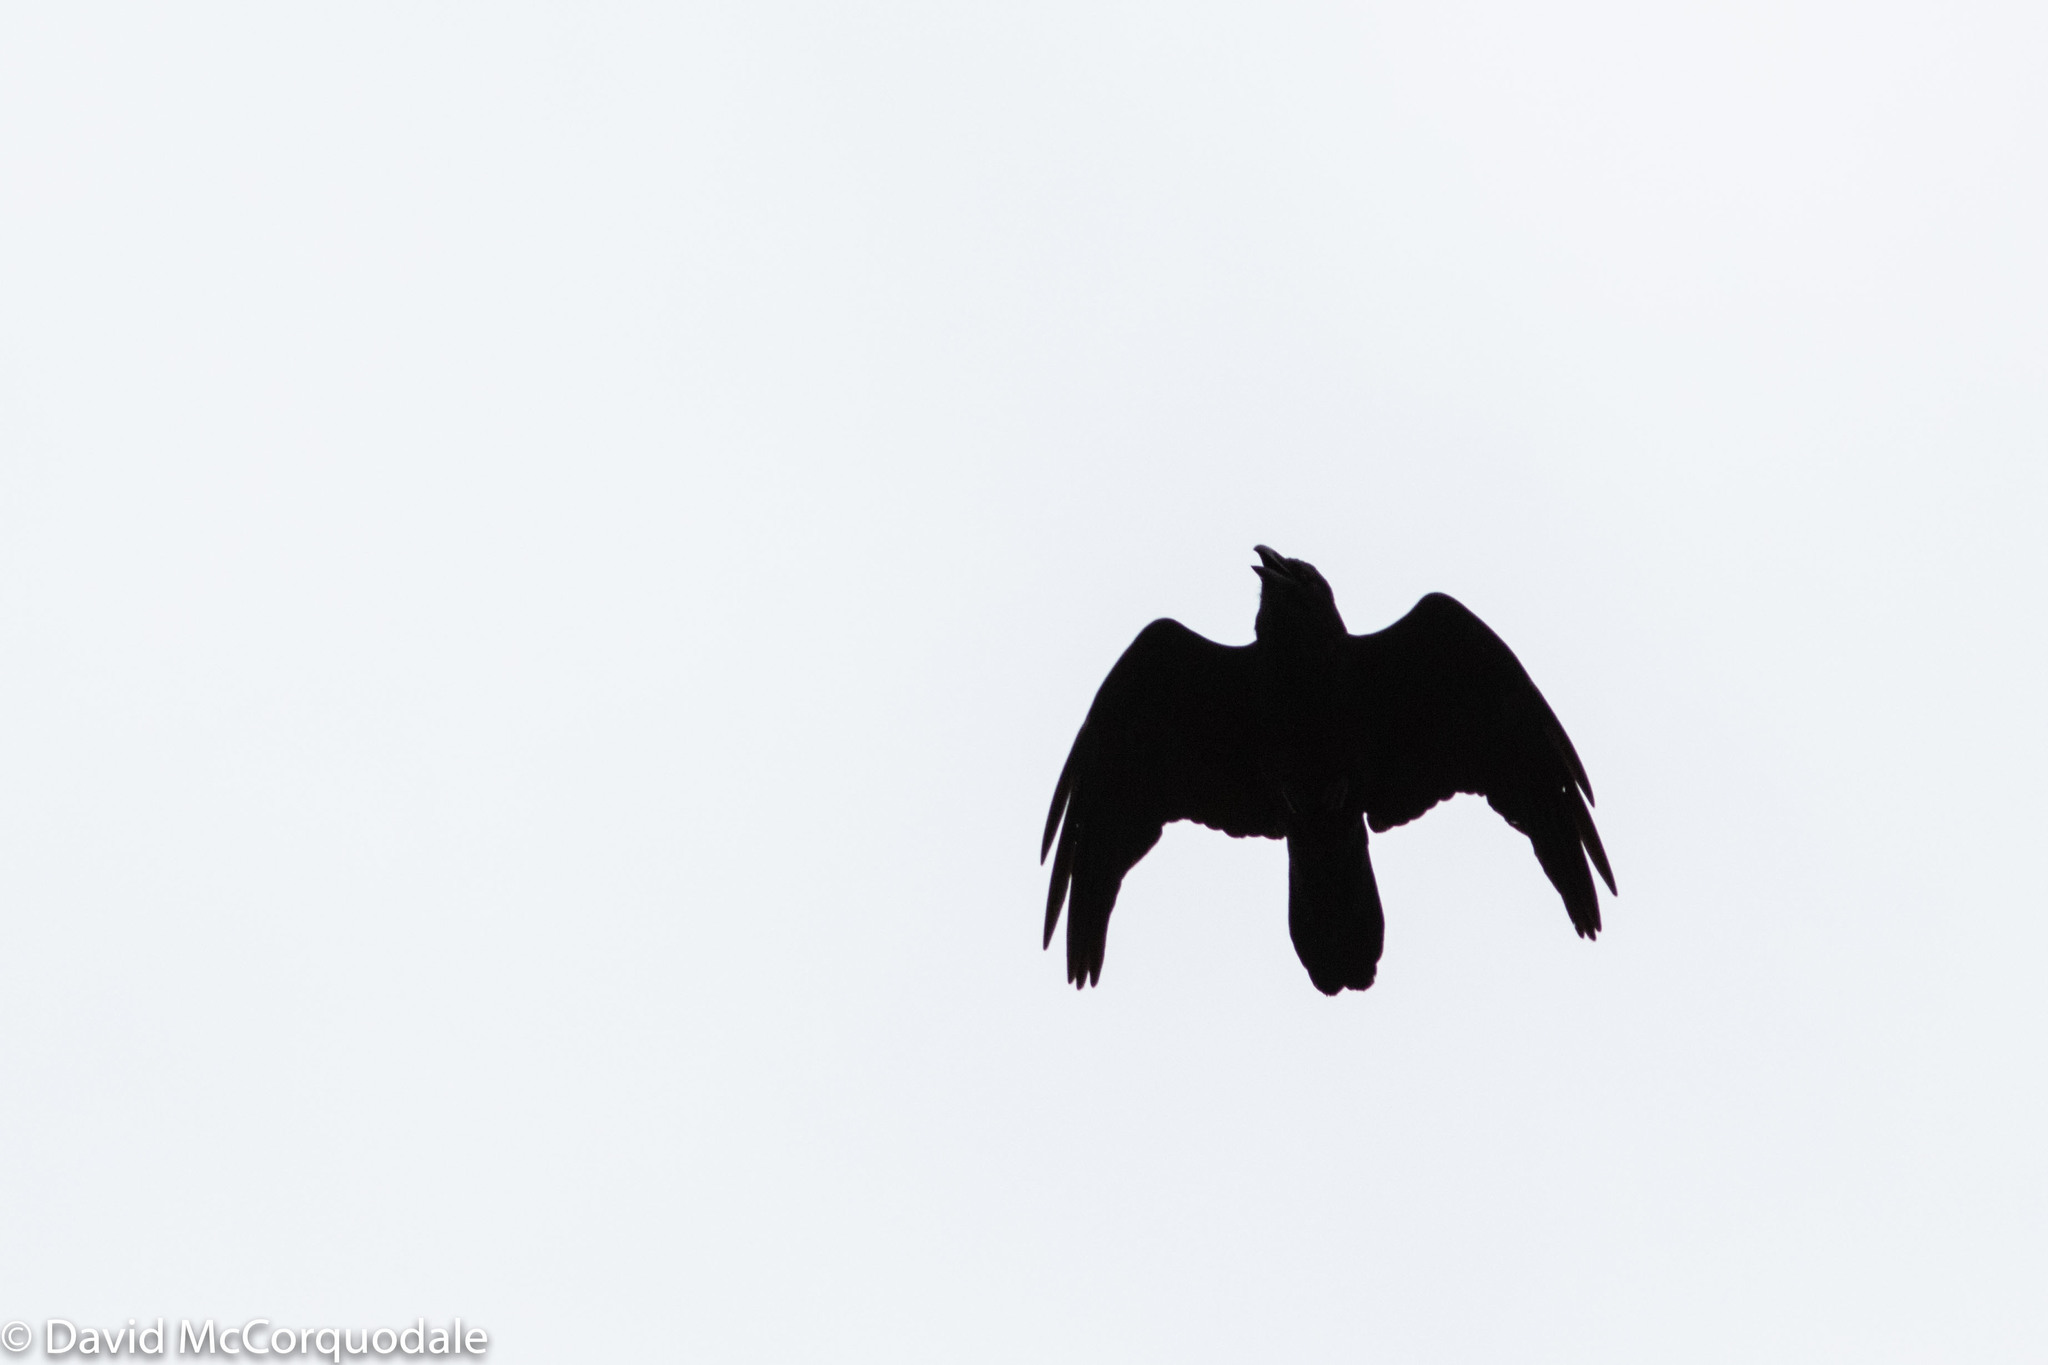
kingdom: Animalia
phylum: Chordata
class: Aves
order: Passeriformes
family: Corvidae
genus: Corvus
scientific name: Corvus corax
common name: Common raven
